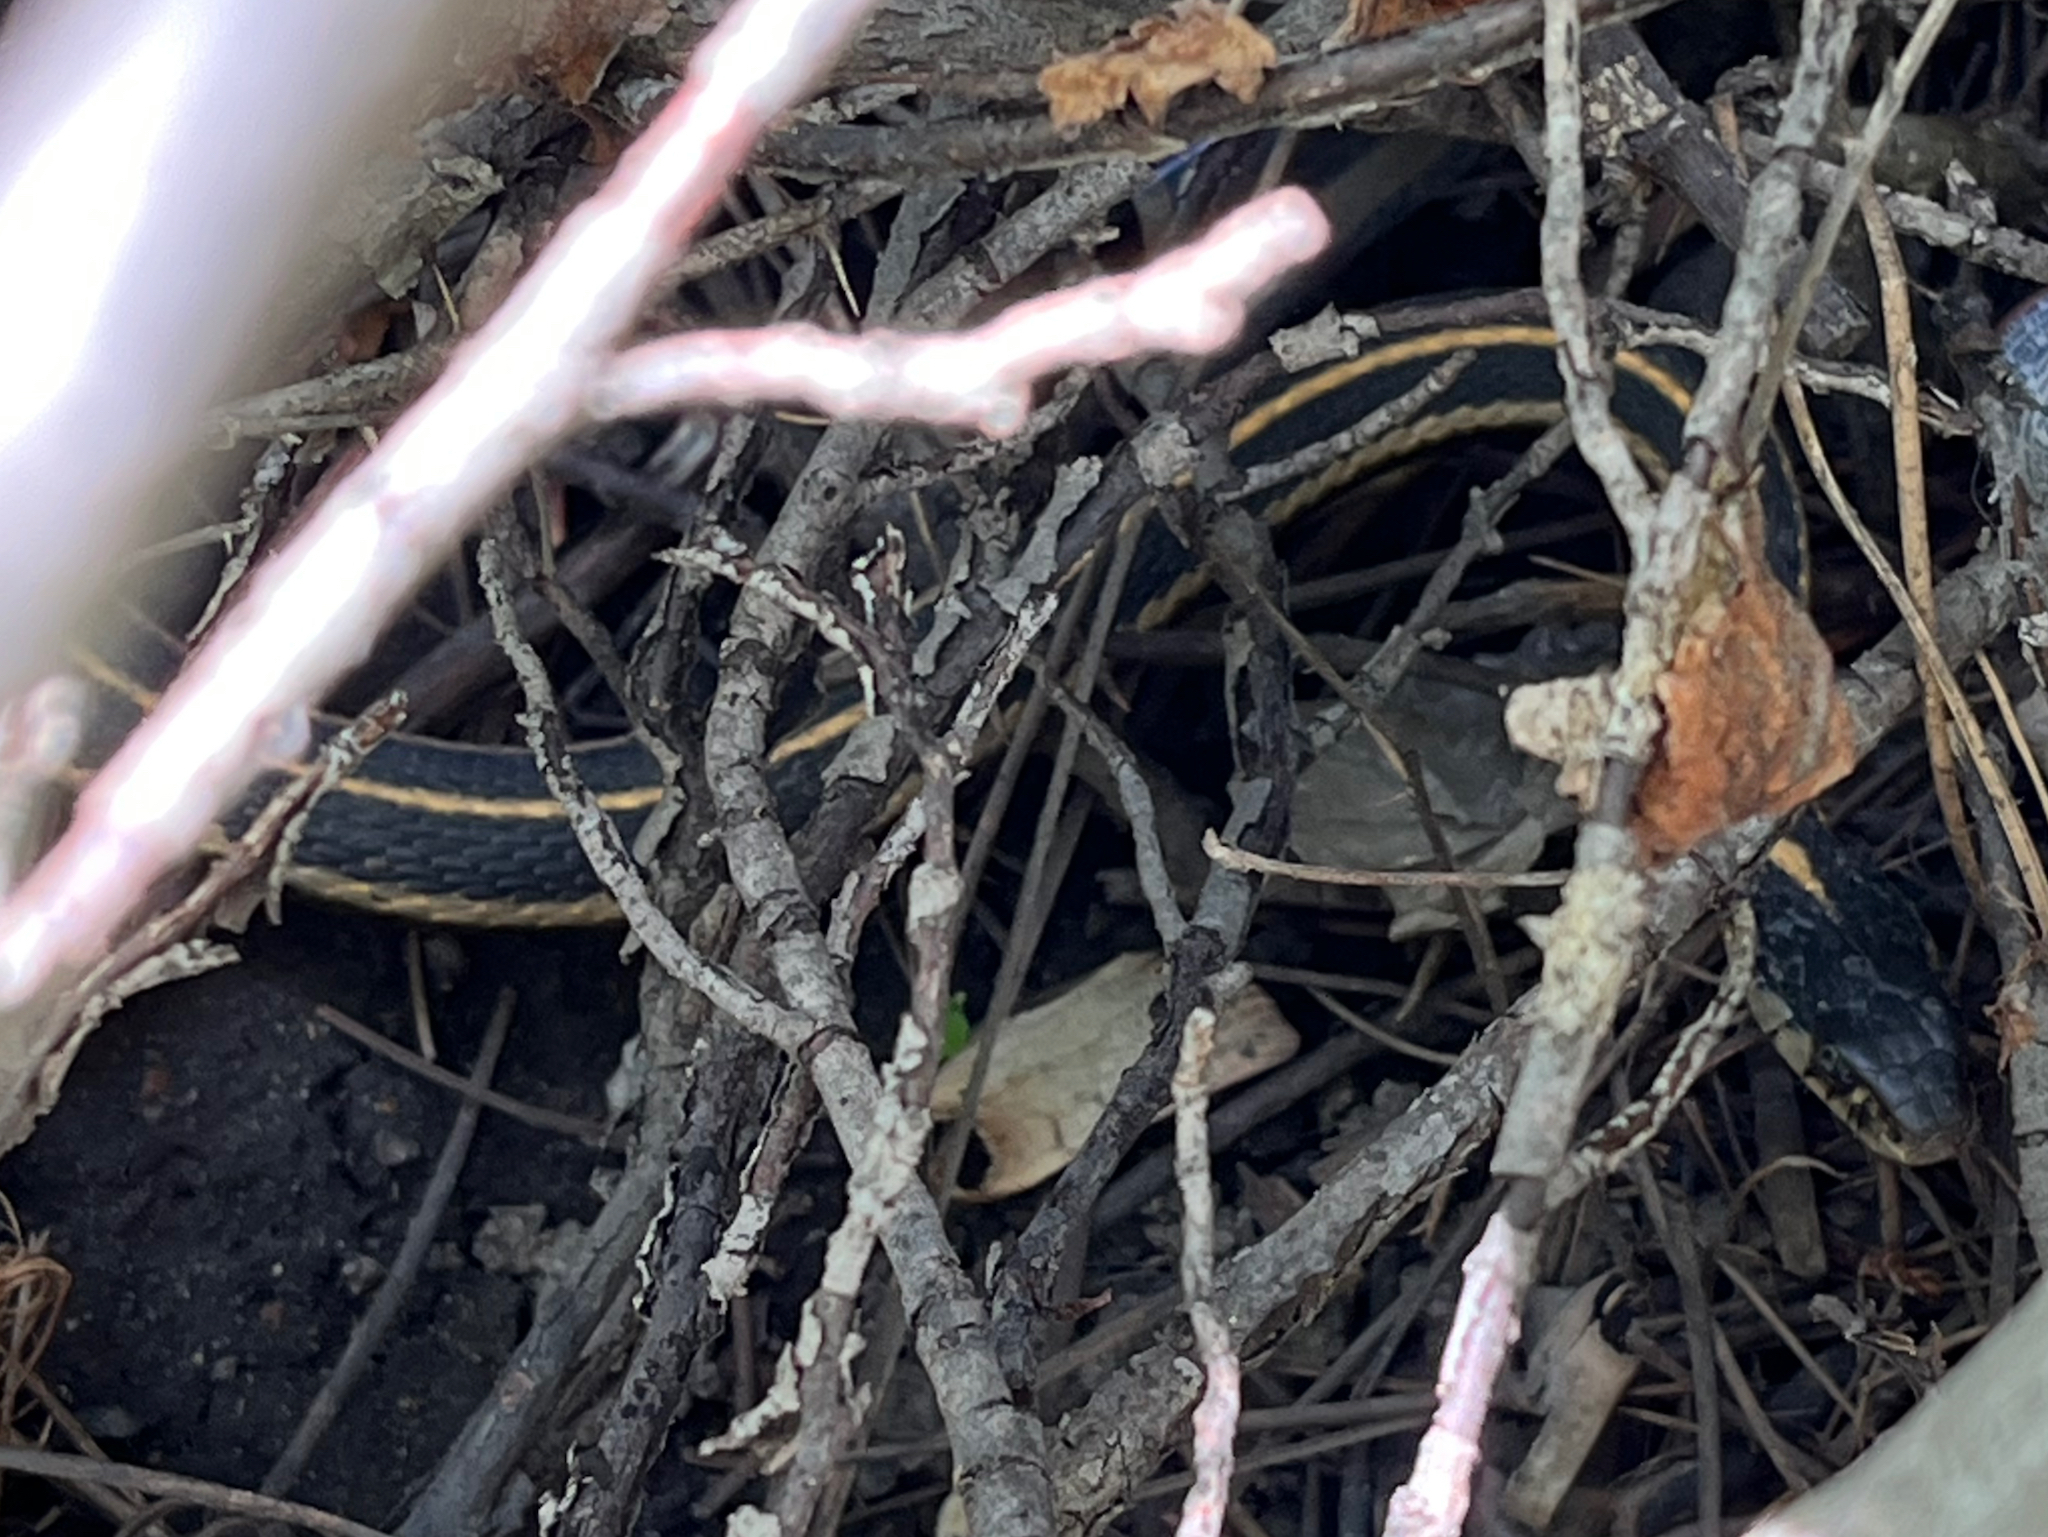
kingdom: Animalia
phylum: Chordata
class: Squamata
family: Colubridae
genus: Thamnophis
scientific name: Thamnophis elegans
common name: Western terrestrial garter snake
